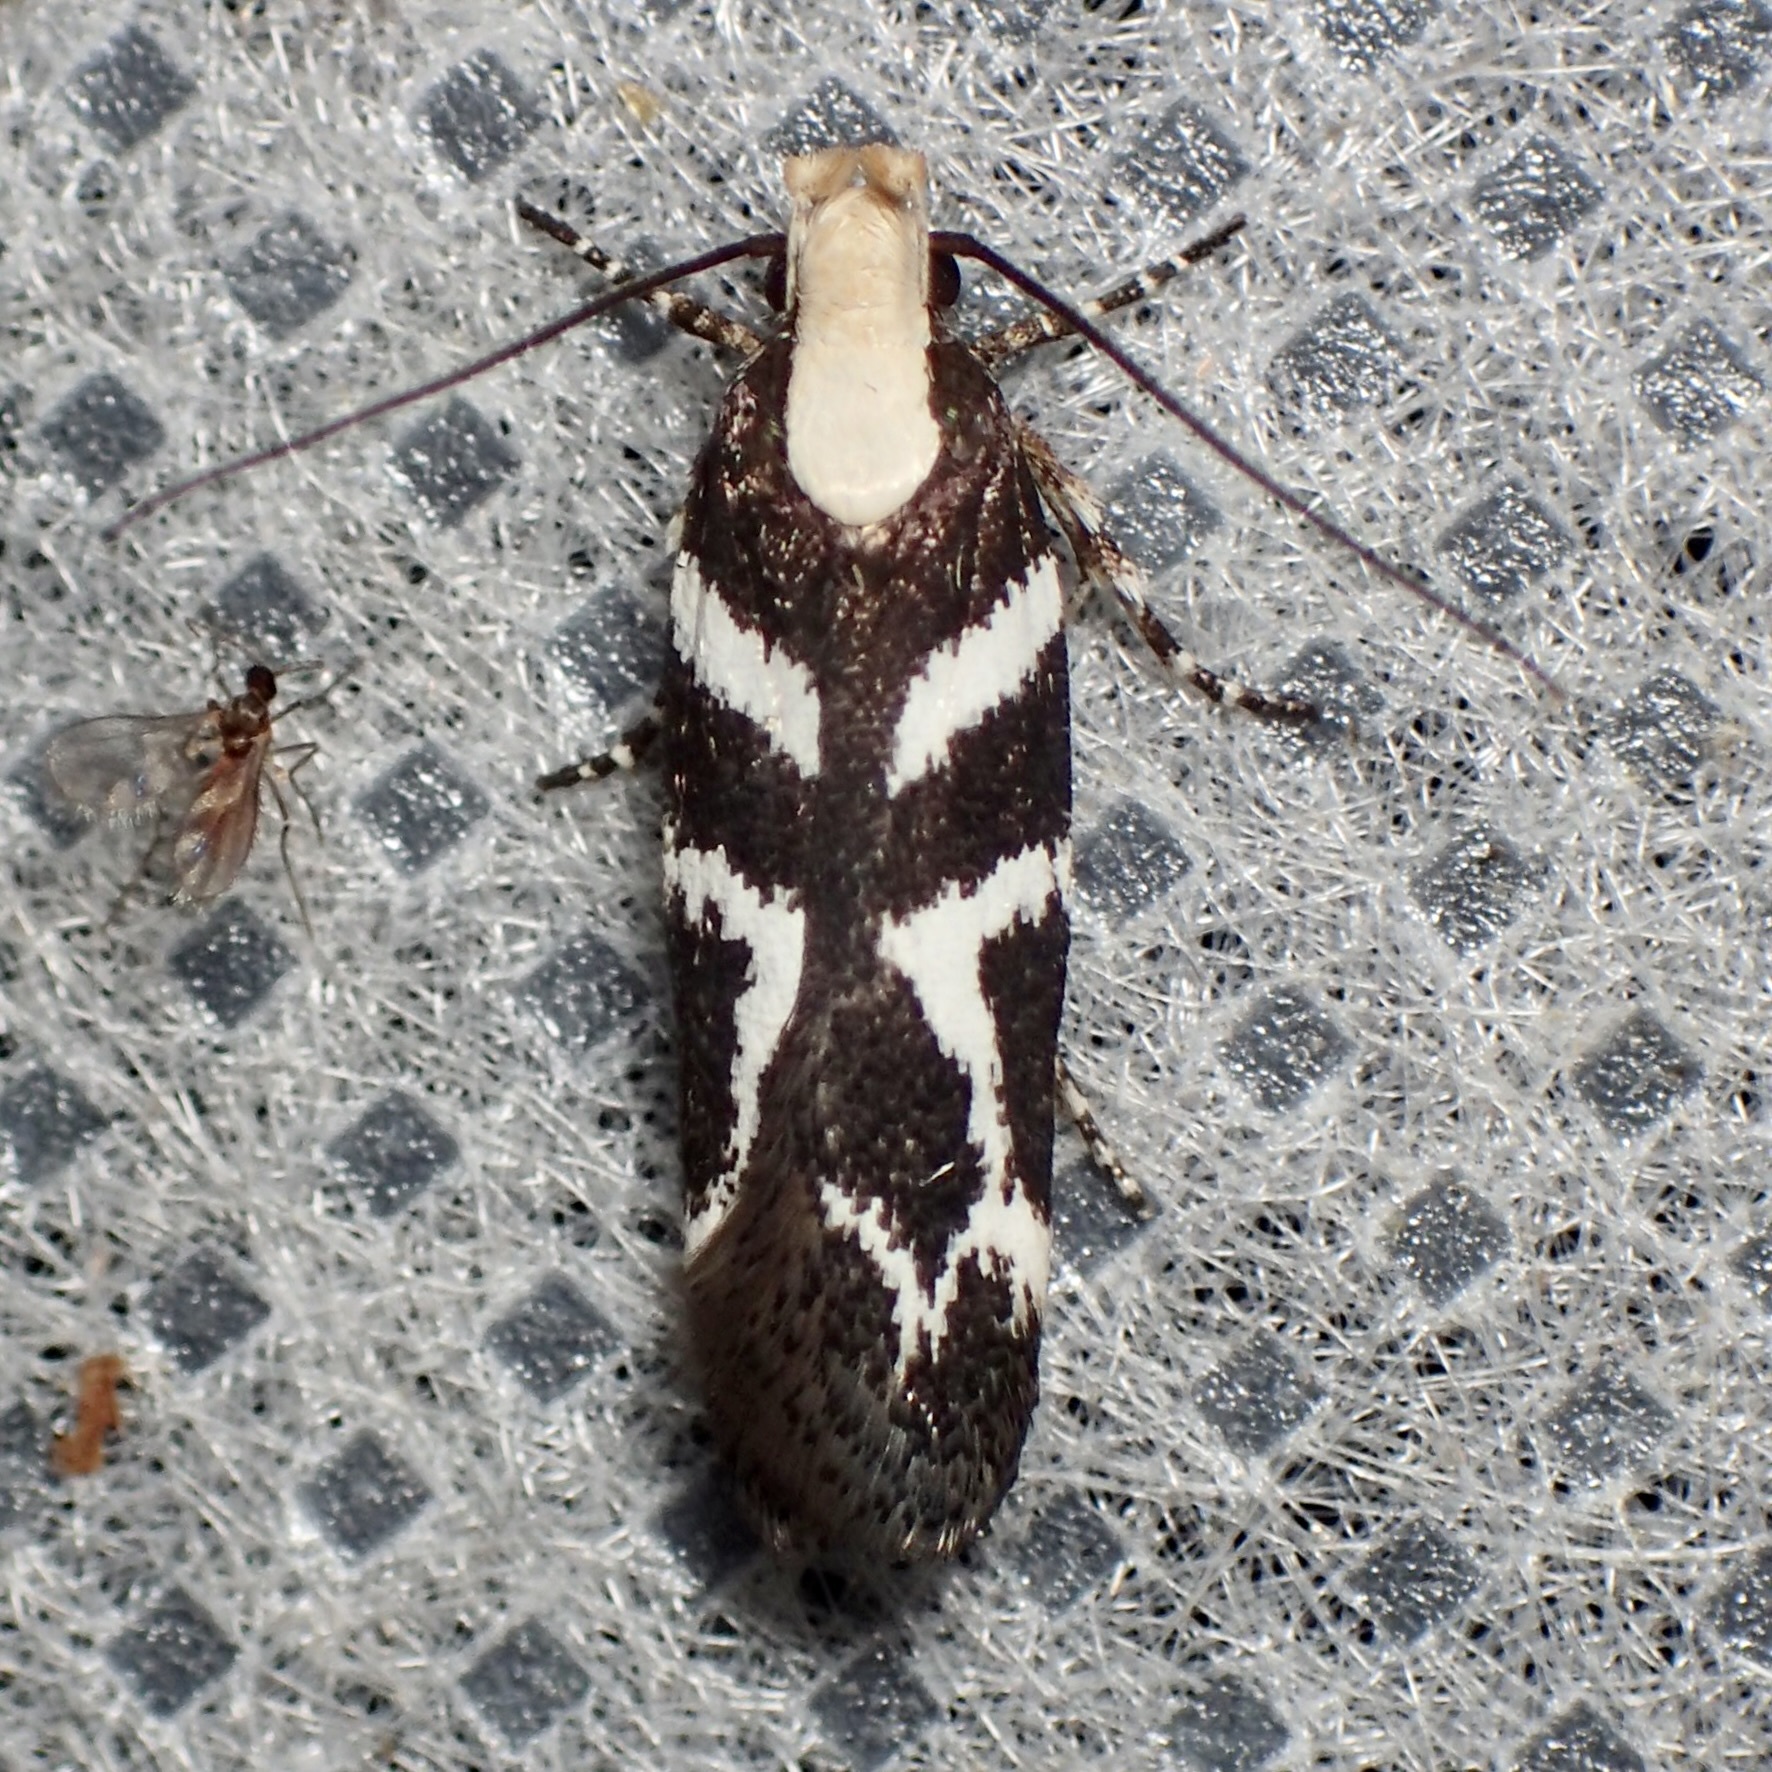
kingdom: Animalia
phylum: Arthropoda
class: Insecta
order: Lepidoptera
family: Gelechiidae
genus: Filatima
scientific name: Filatima albilorella
